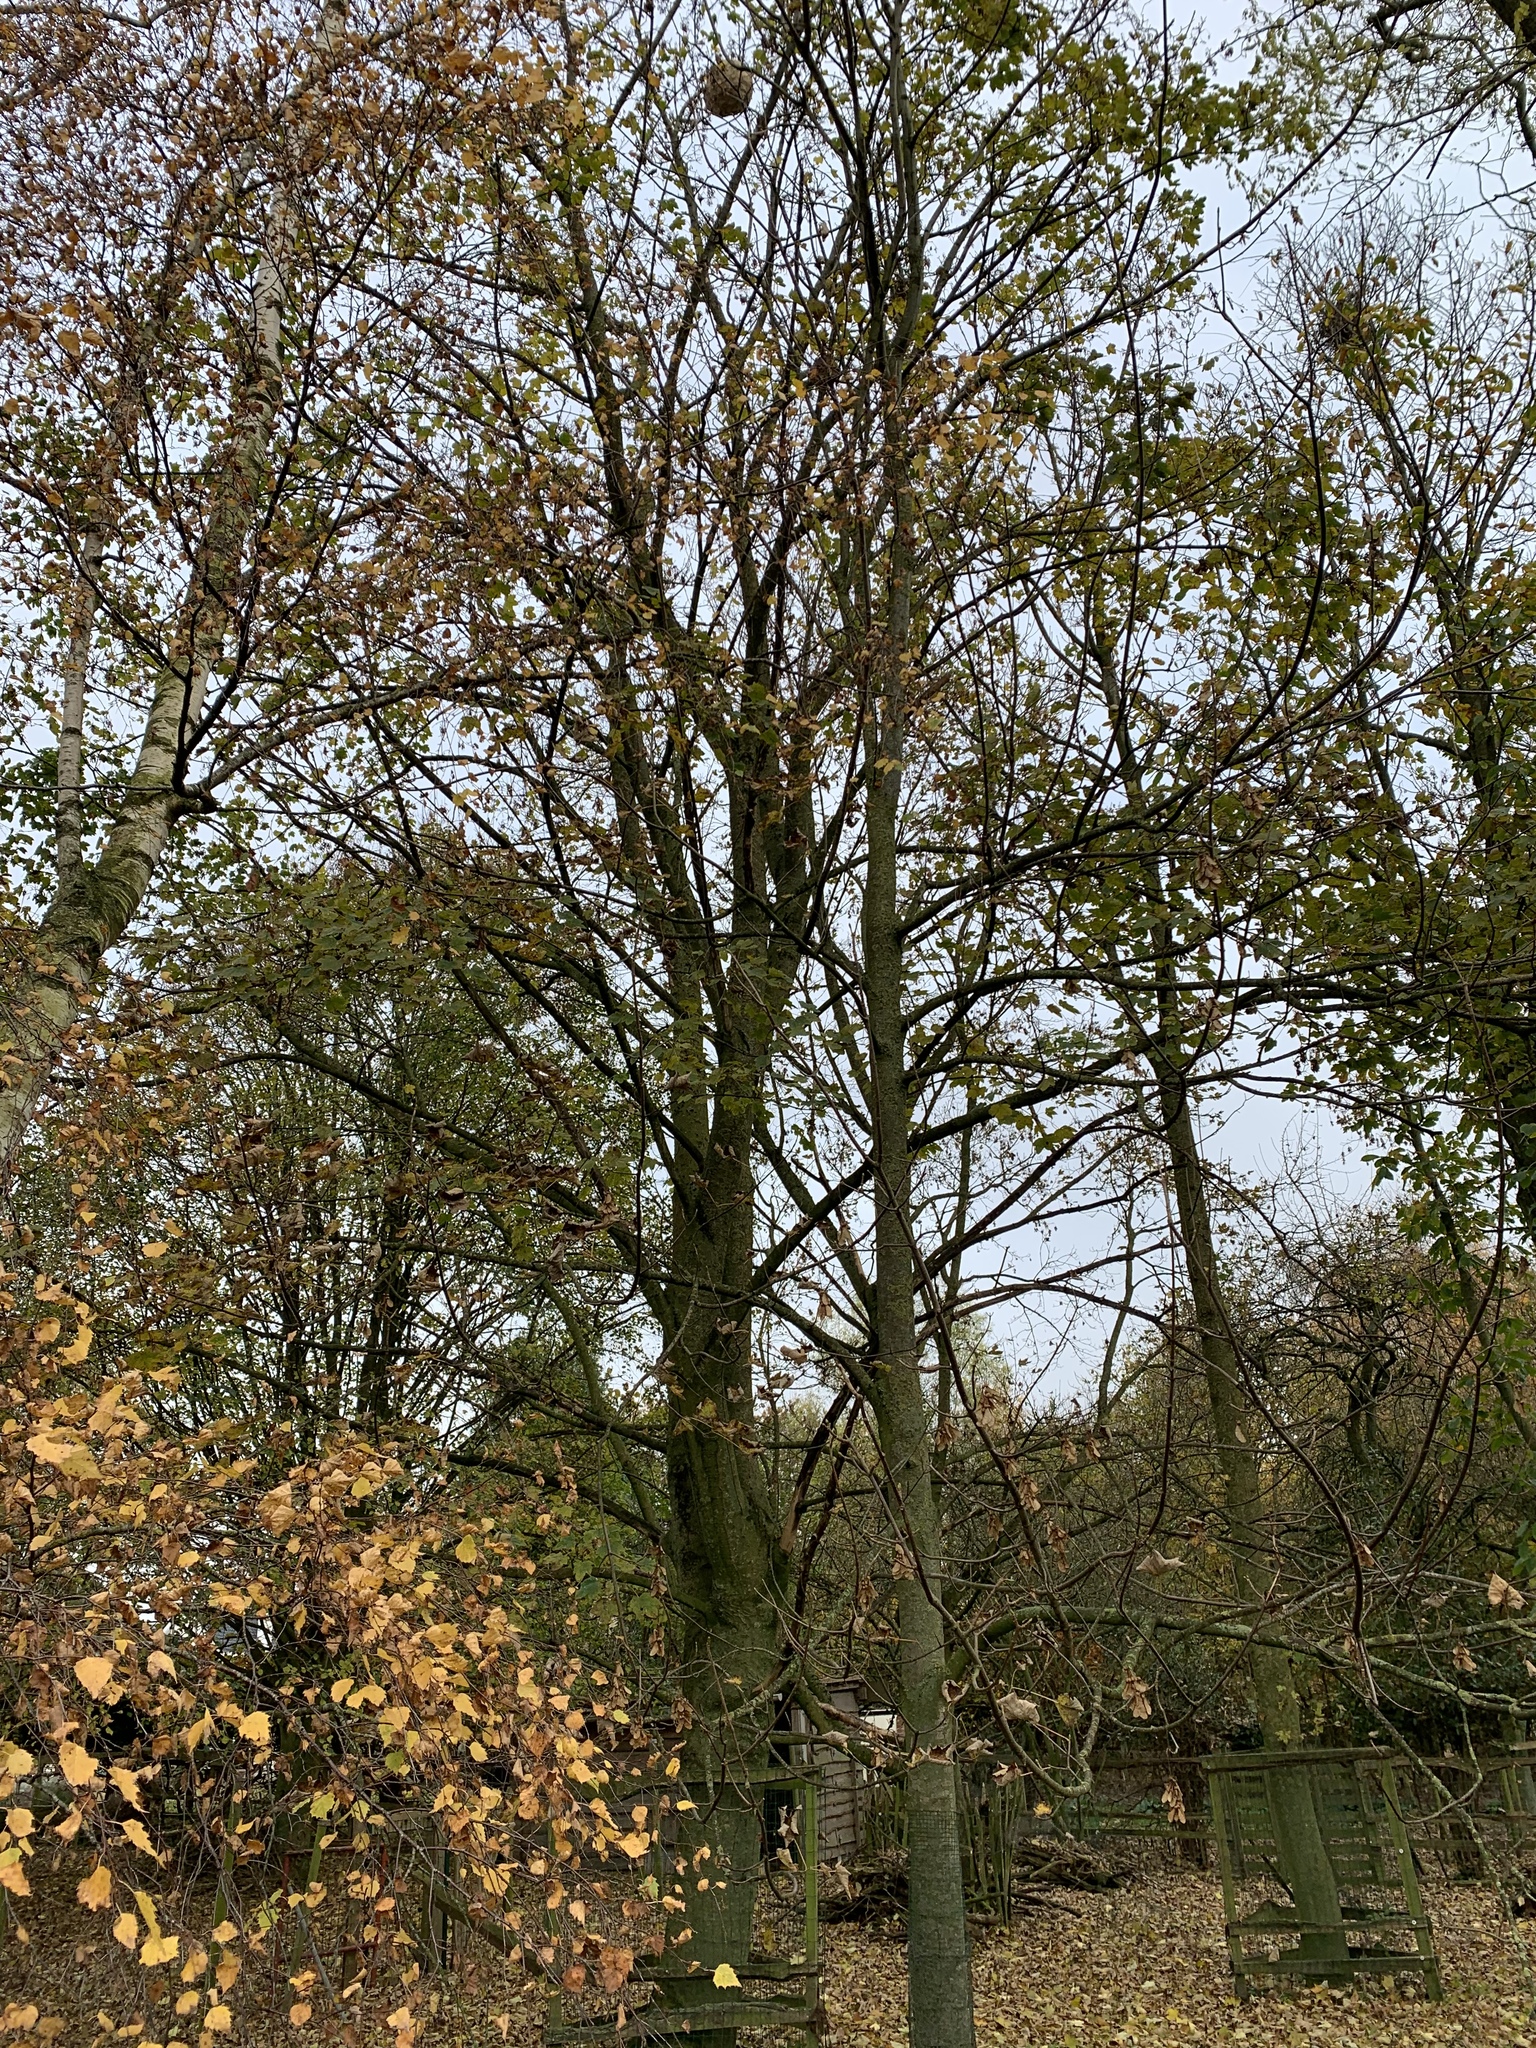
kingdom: Animalia
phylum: Arthropoda
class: Insecta
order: Hymenoptera
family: Vespidae
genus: Vespa
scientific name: Vespa velutina
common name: Asian hornet
